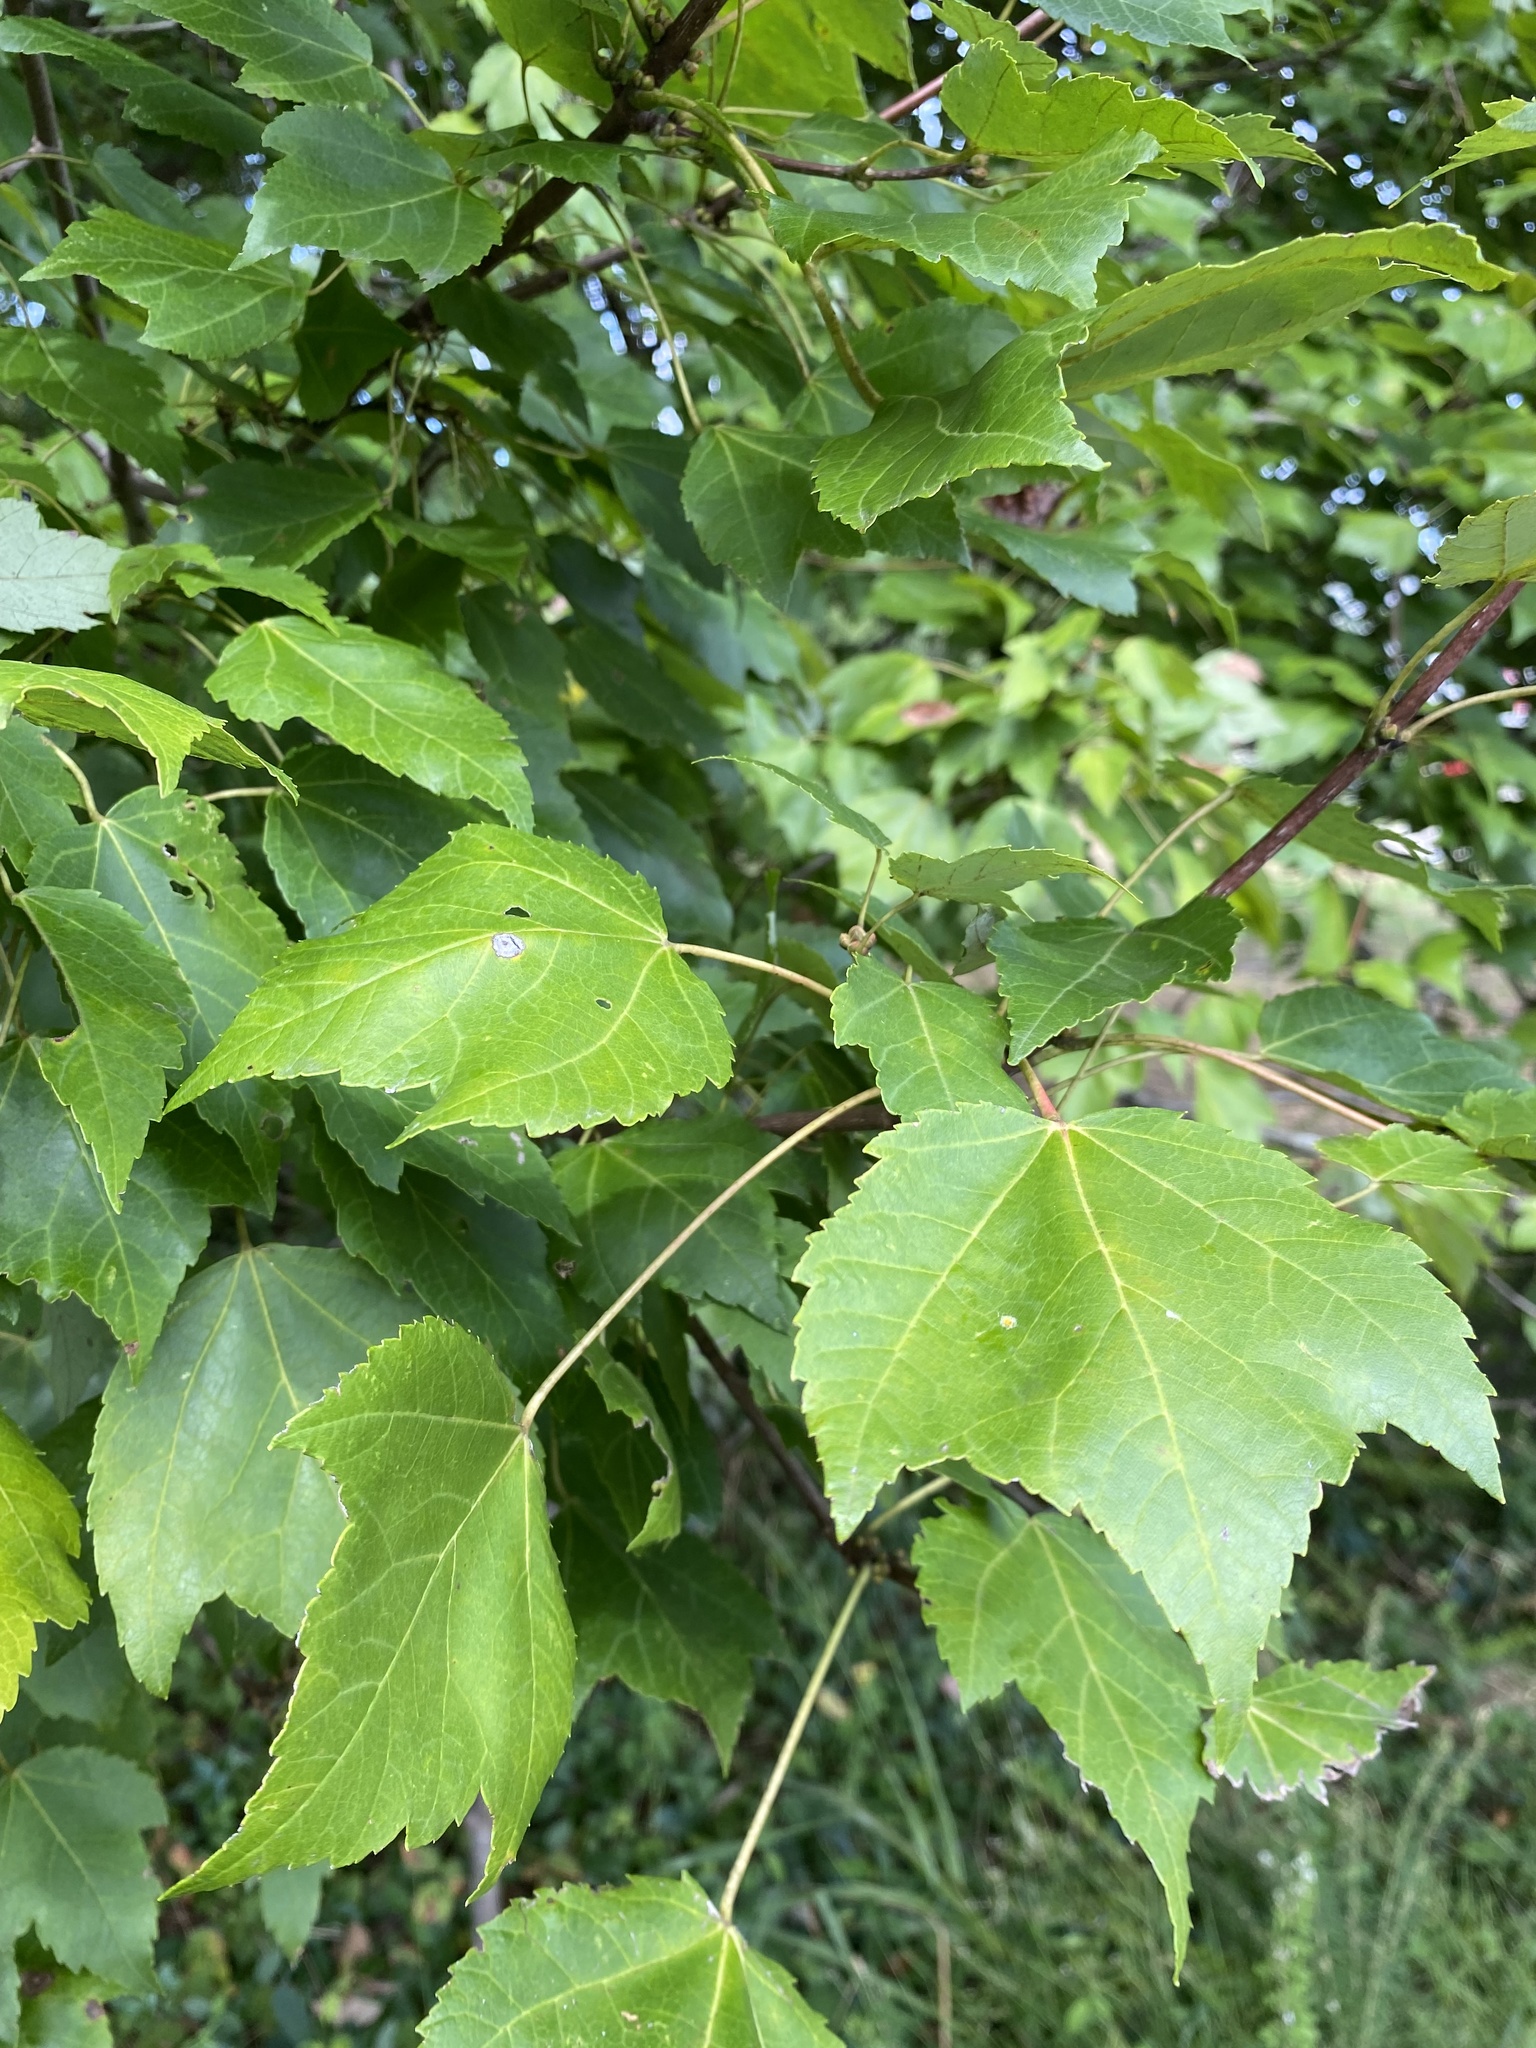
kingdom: Plantae
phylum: Tracheophyta
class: Magnoliopsida
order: Sapindales
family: Sapindaceae
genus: Acer
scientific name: Acer rubrum
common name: Red maple
